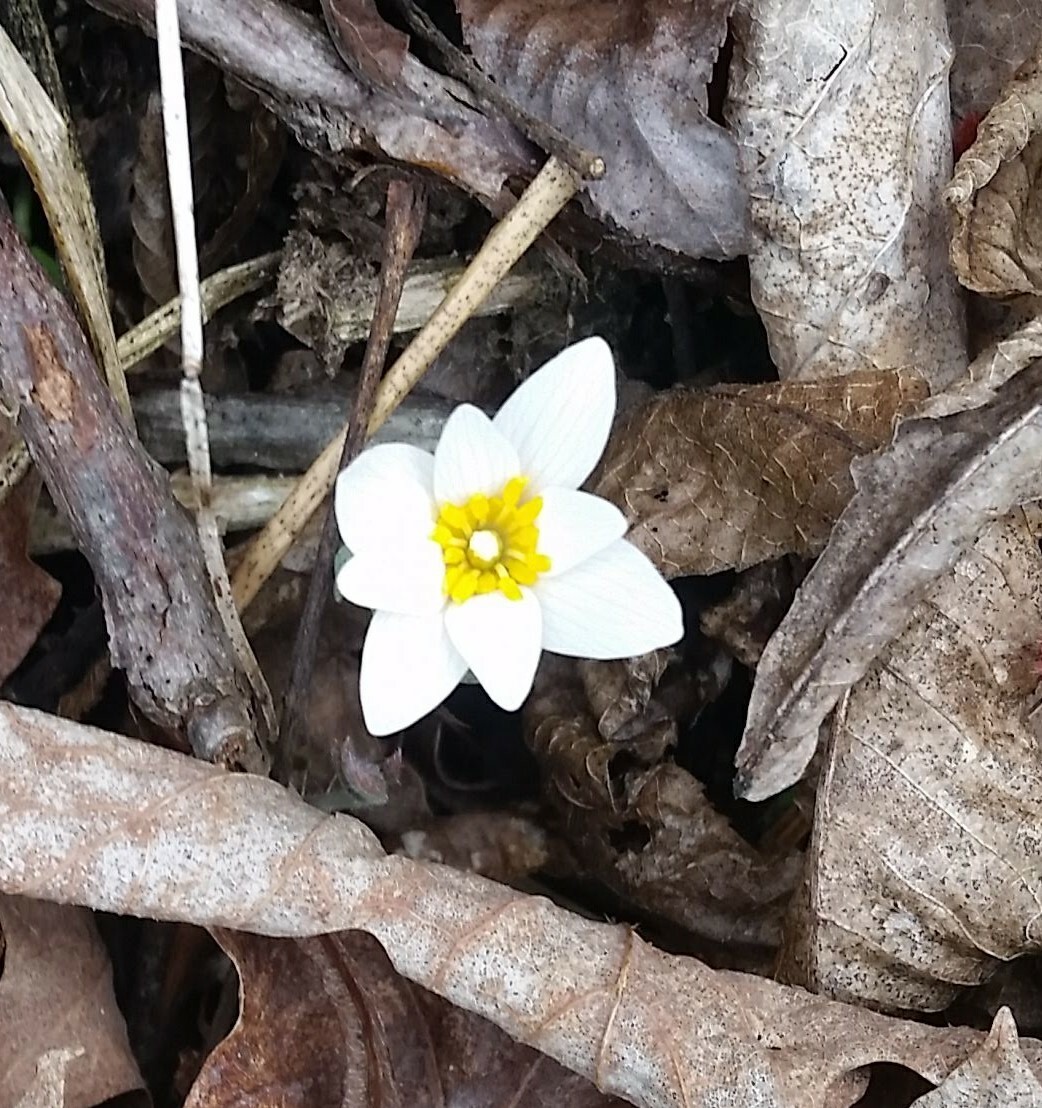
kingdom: Plantae
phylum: Tracheophyta
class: Magnoliopsida
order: Ranunculales
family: Papaveraceae
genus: Sanguinaria
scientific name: Sanguinaria canadensis
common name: Bloodroot
